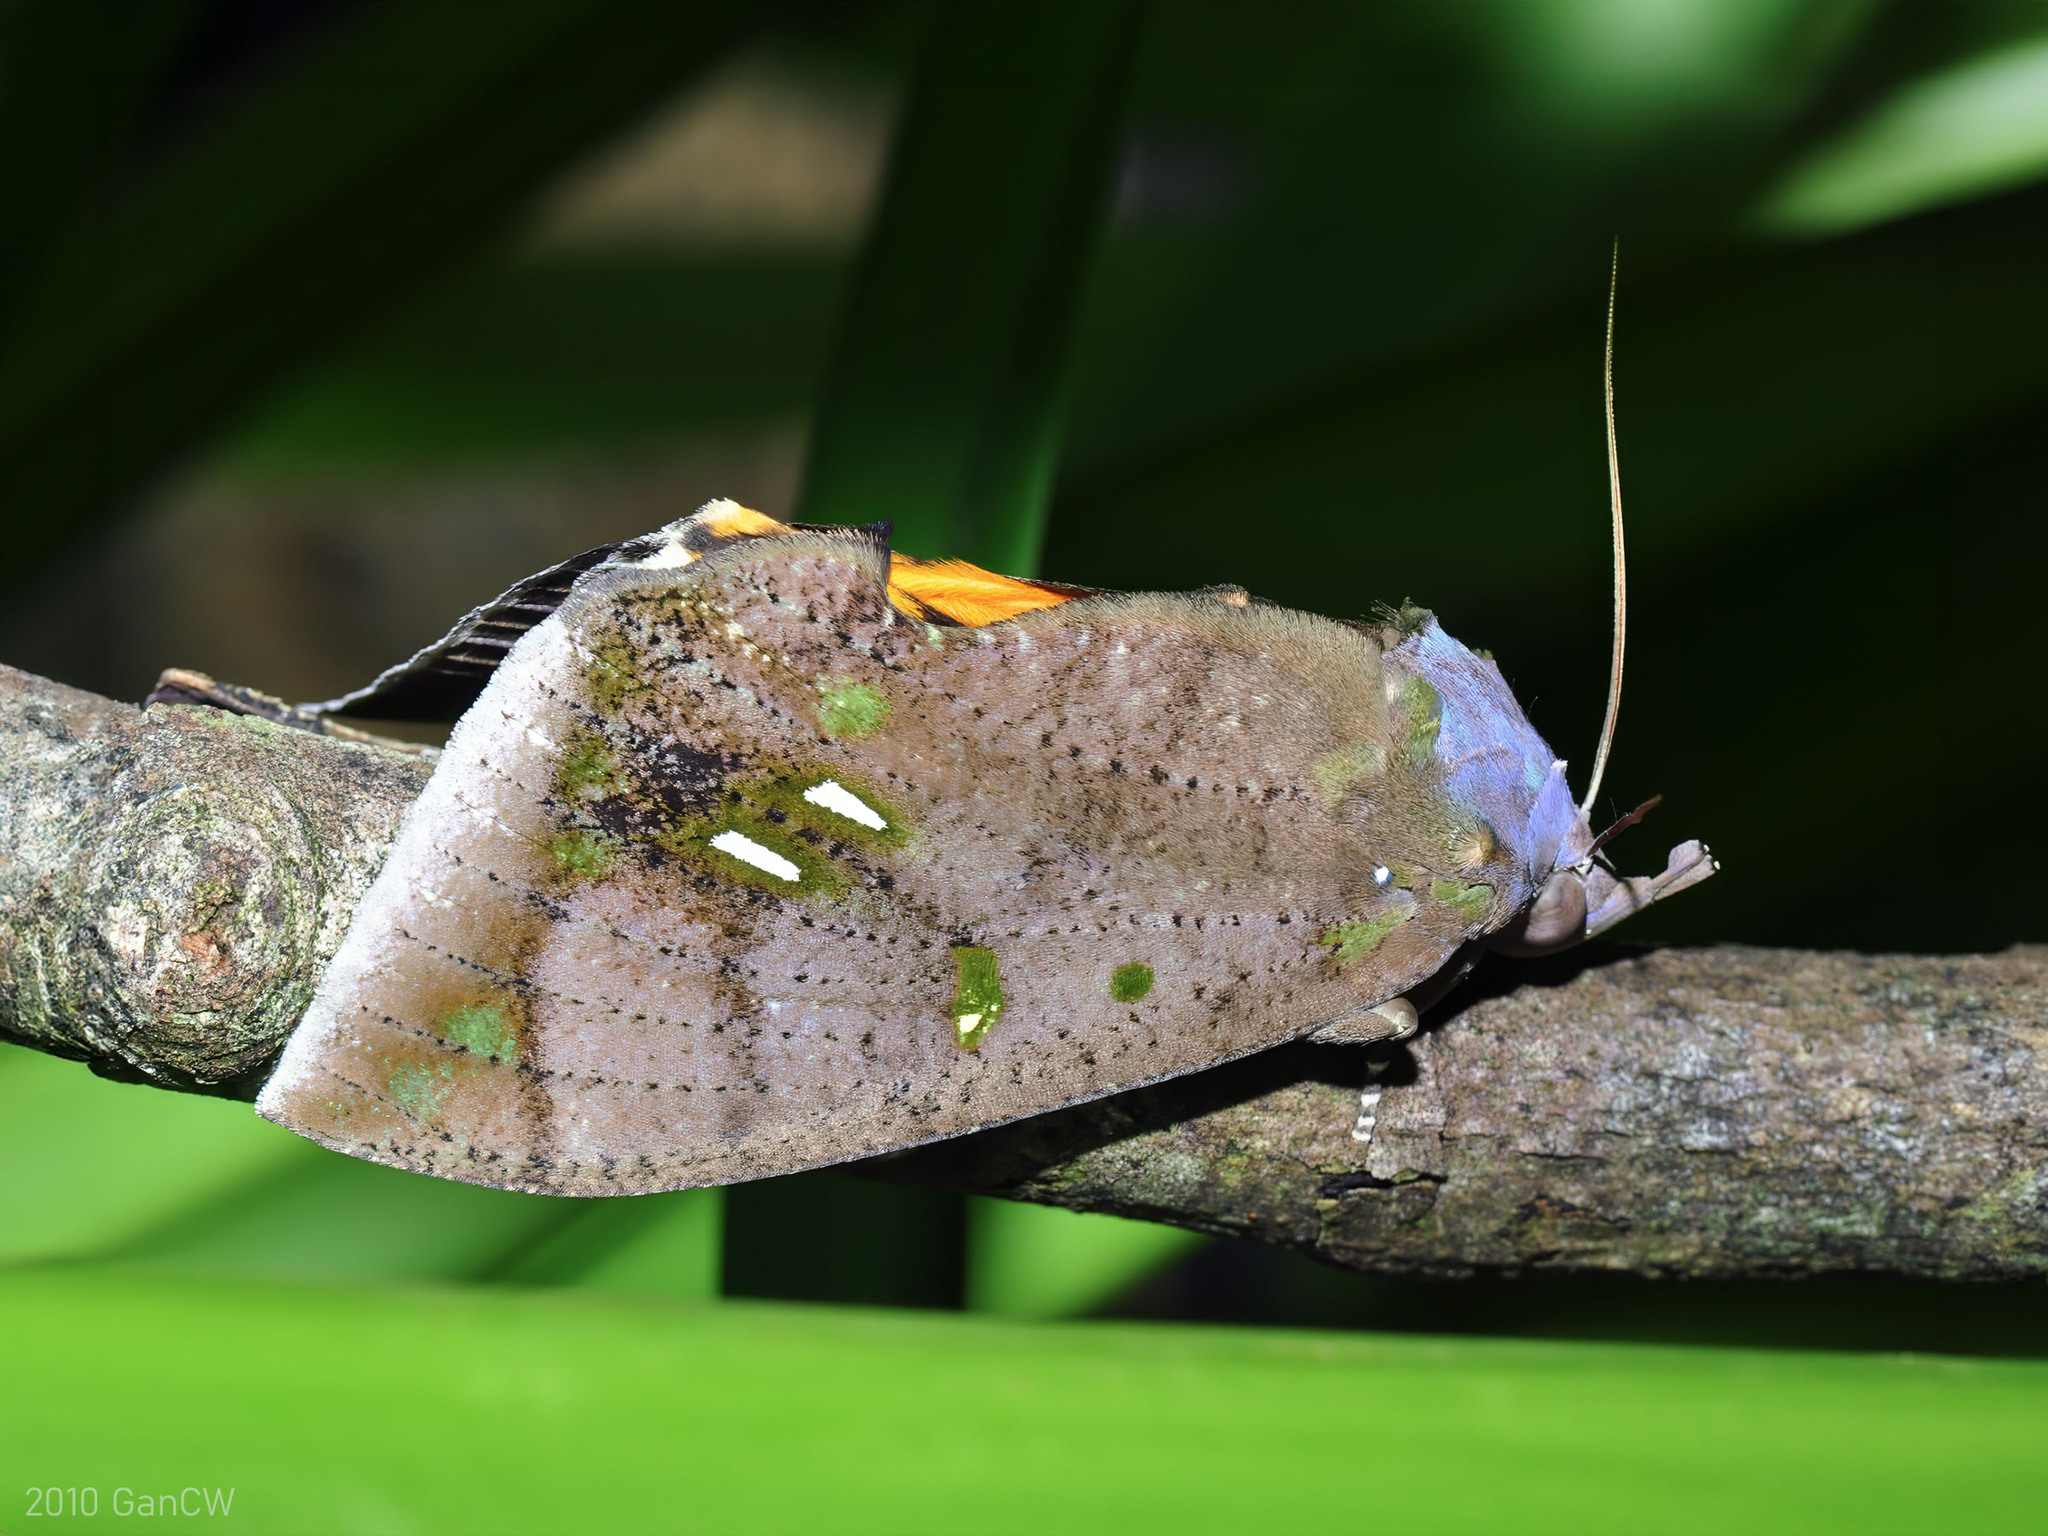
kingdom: Animalia
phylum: Arthropoda
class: Insecta
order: Lepidoptera
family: Erebidae
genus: Eudocima
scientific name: Eudocima discrepans
